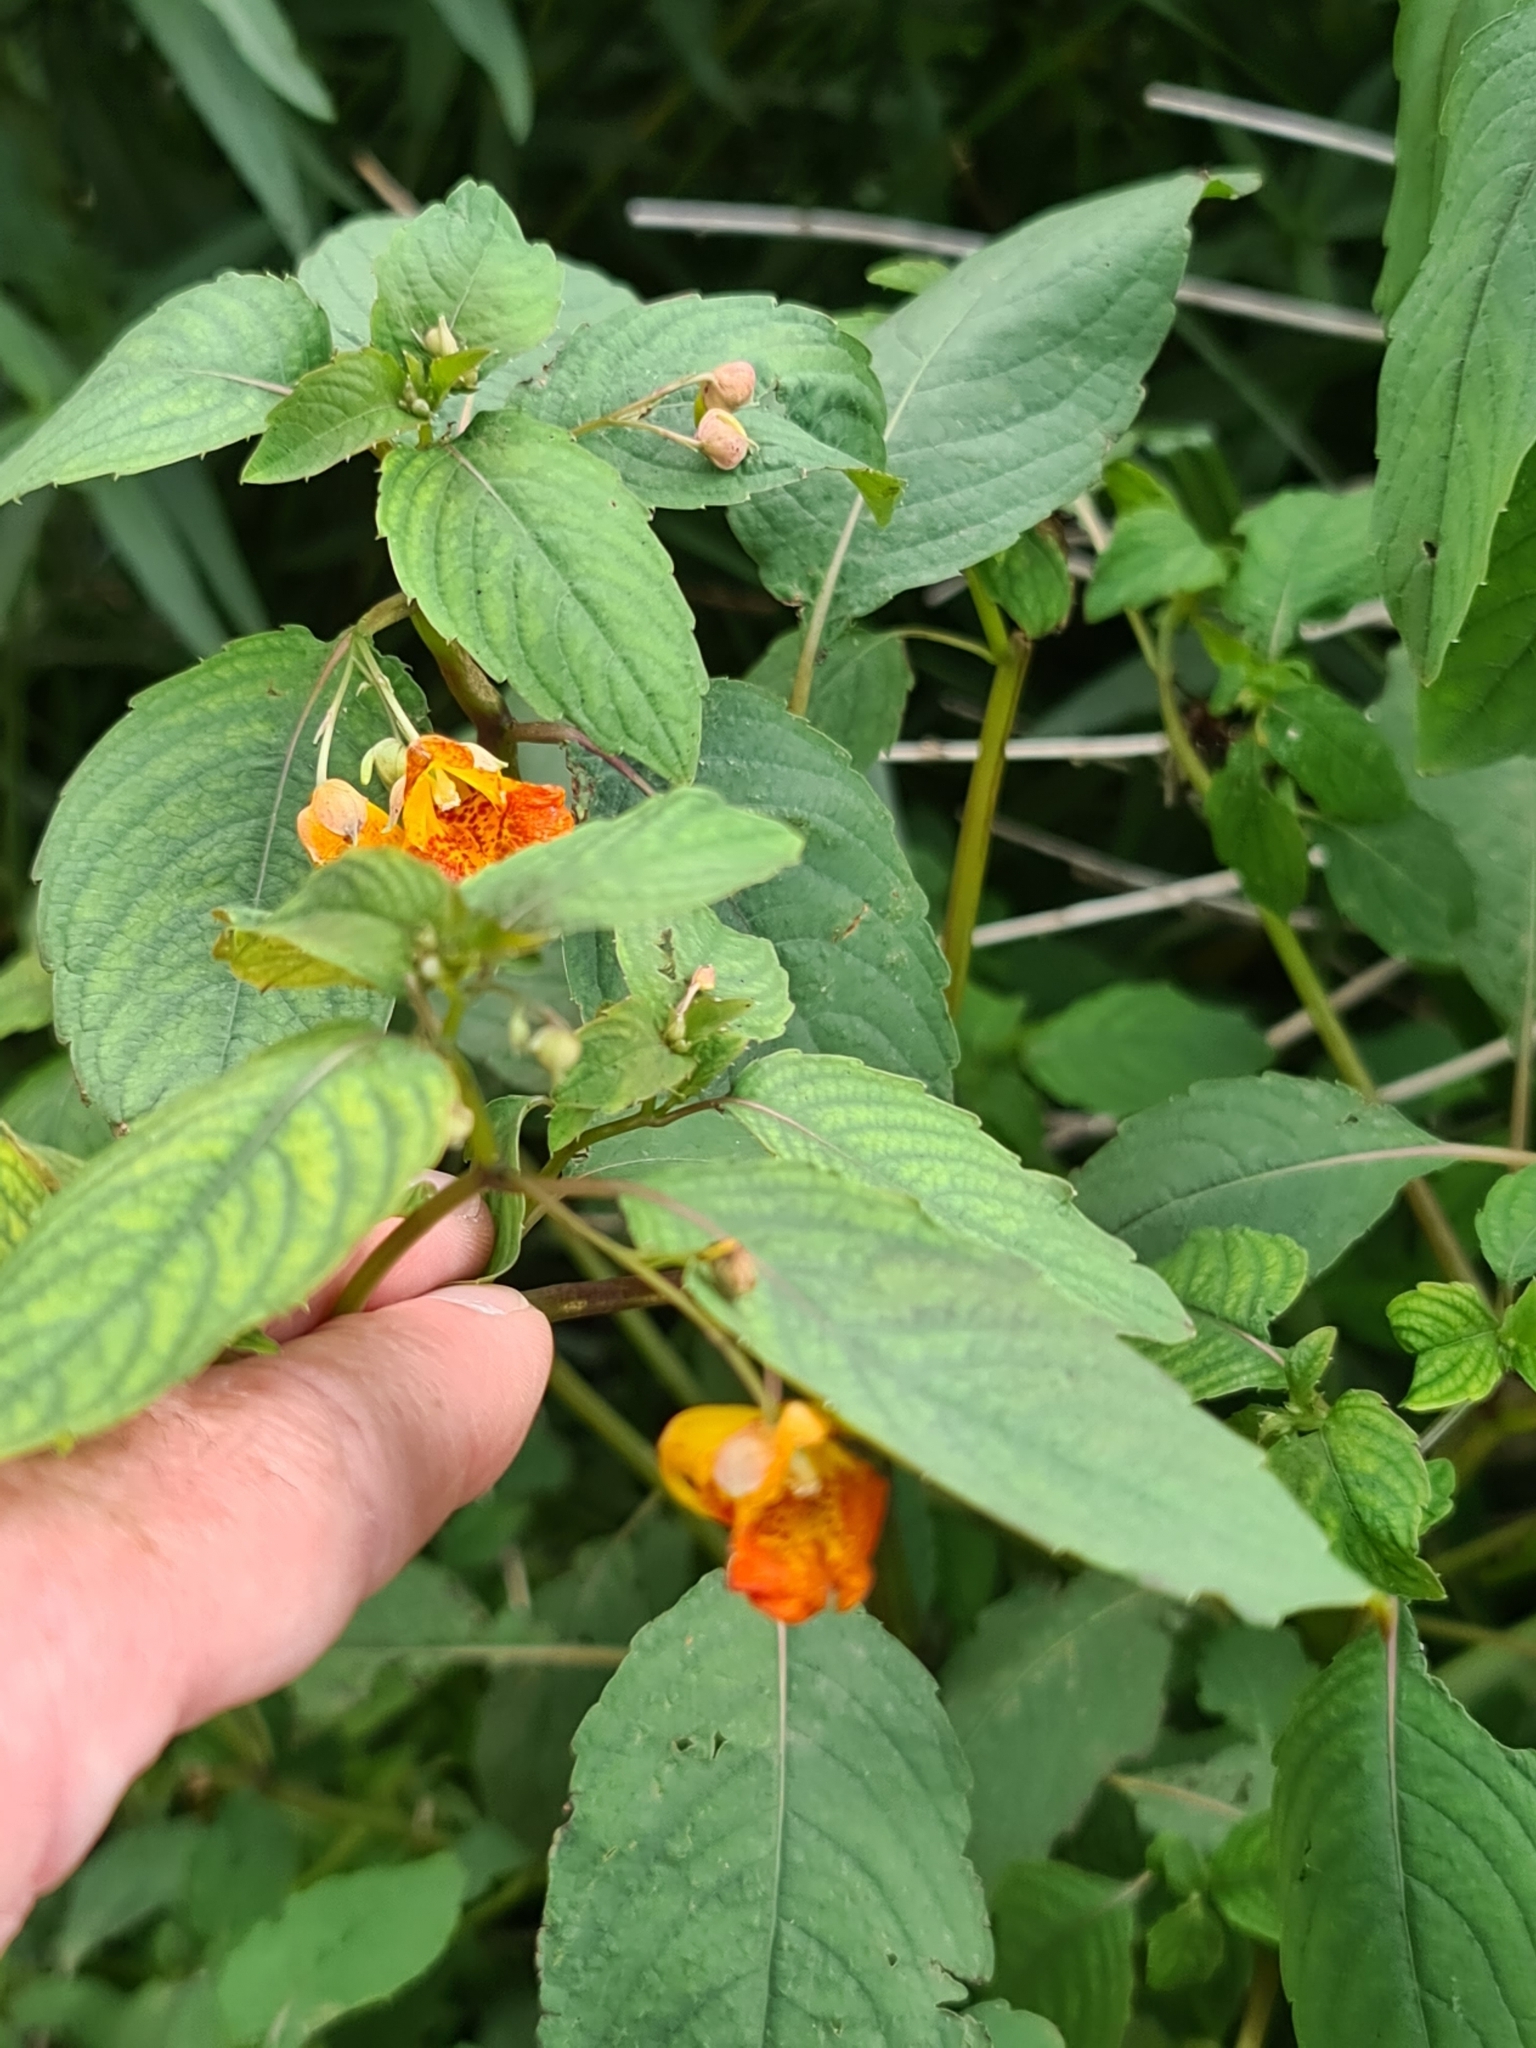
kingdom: Plantae
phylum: Tracheophyta
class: Magnoliopsida
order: Ericales
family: Balsaminaceae
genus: Impatiens
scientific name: Impatiens capensis
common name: Orange balsam
